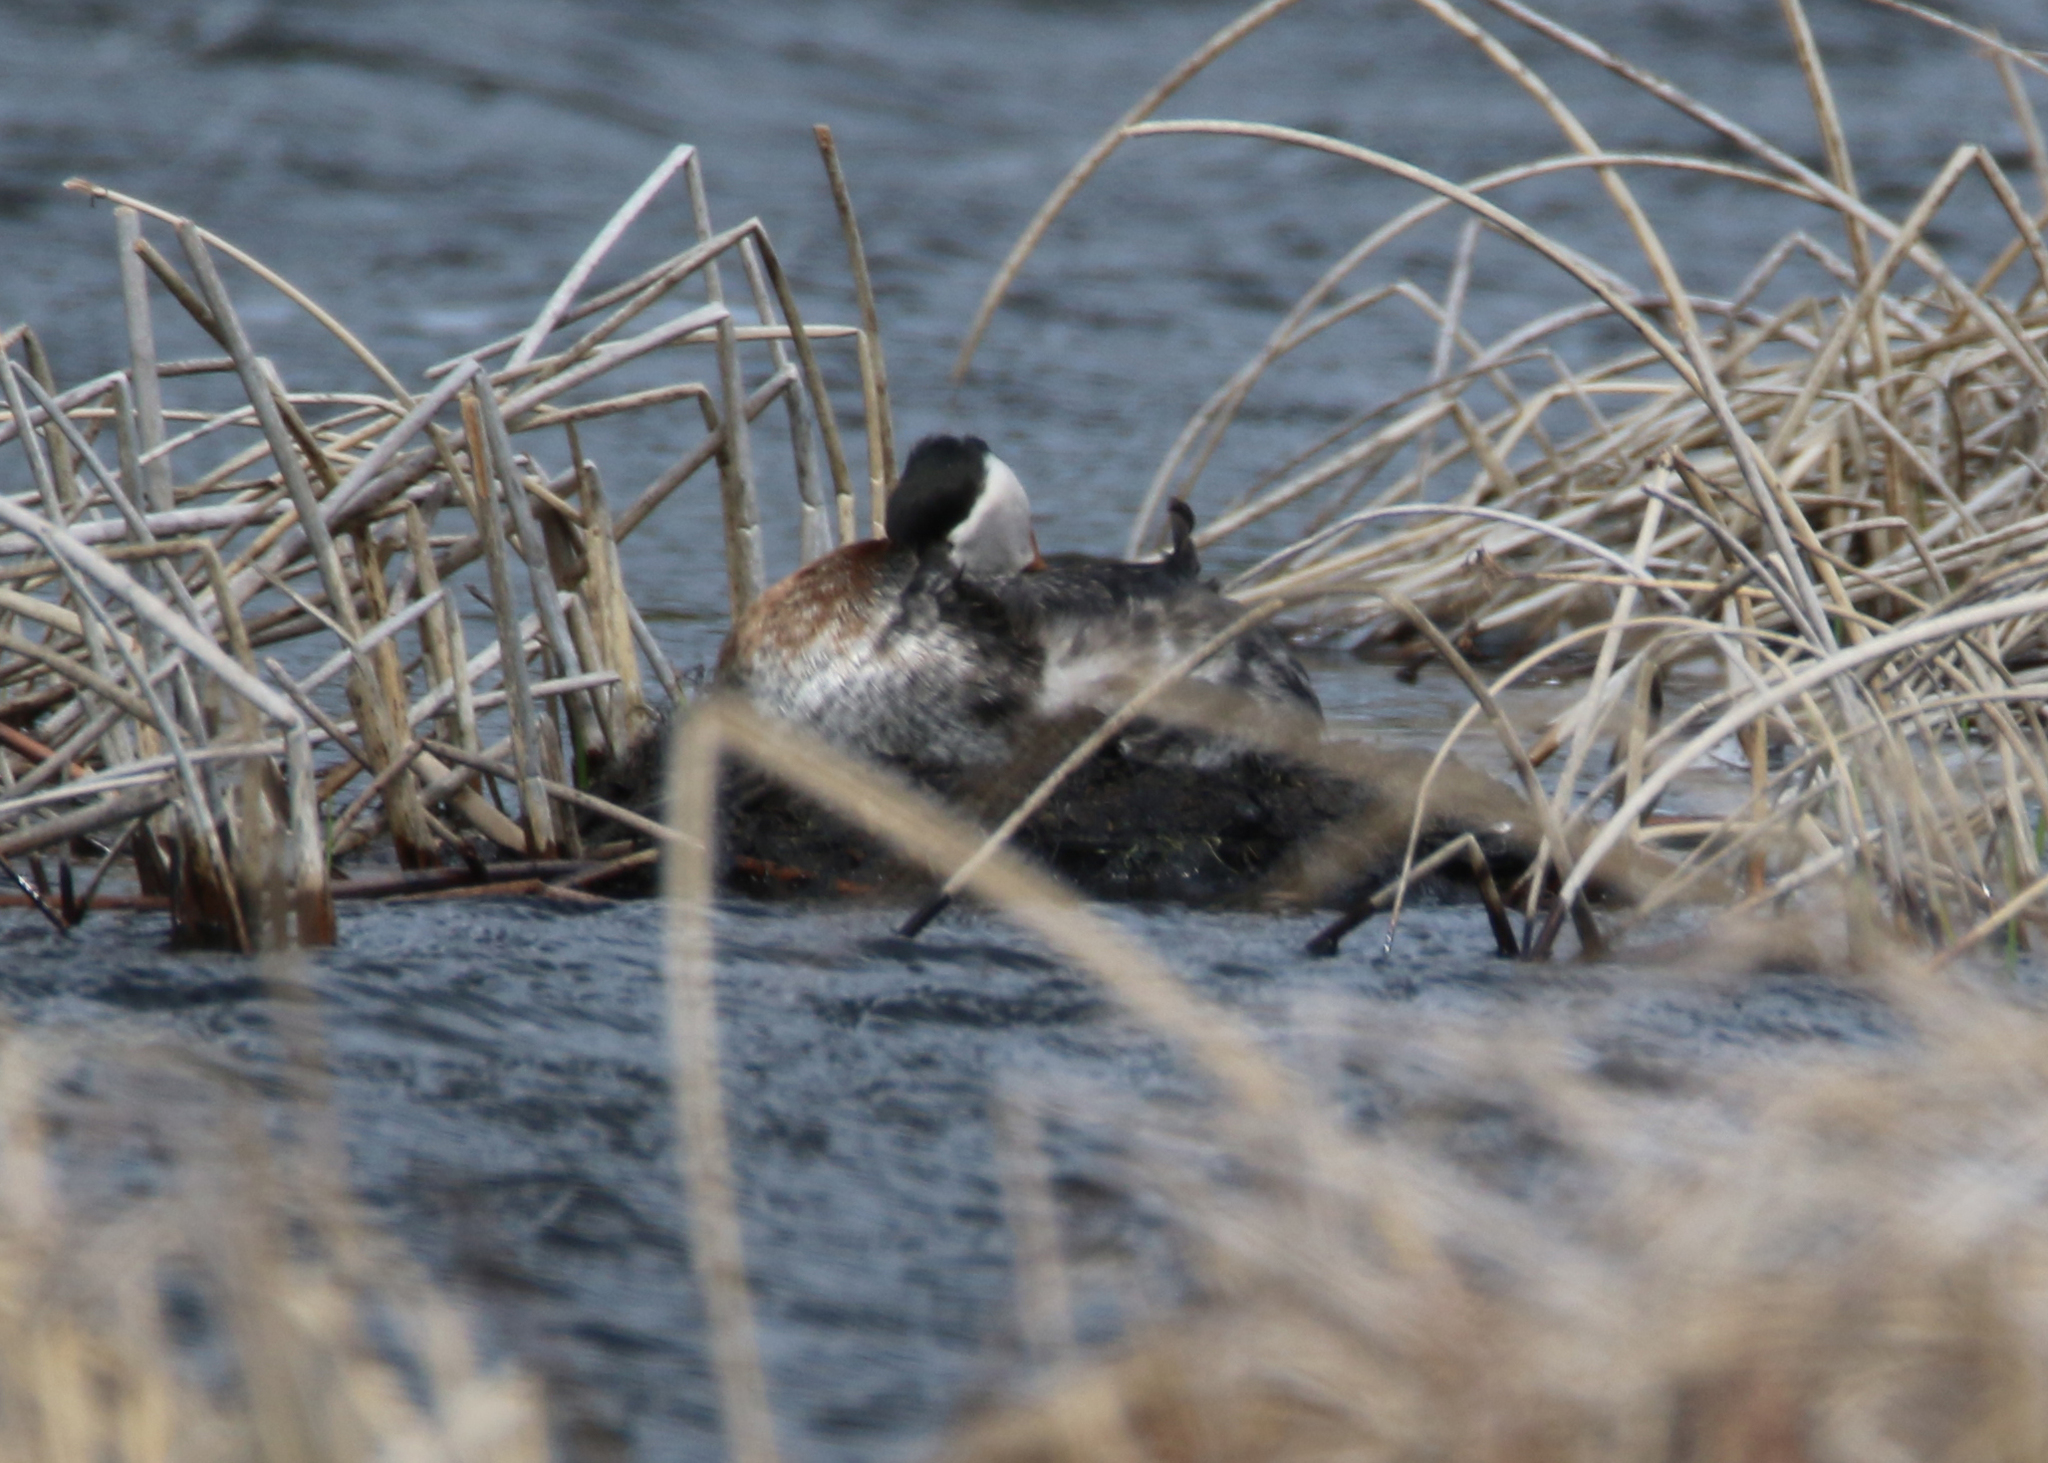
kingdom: Animalia
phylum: Chordata
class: Aves
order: Podicipediformes
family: Podicipedidae
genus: Podiceps
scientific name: Podiceps grisegena
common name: Red-necked grebe
